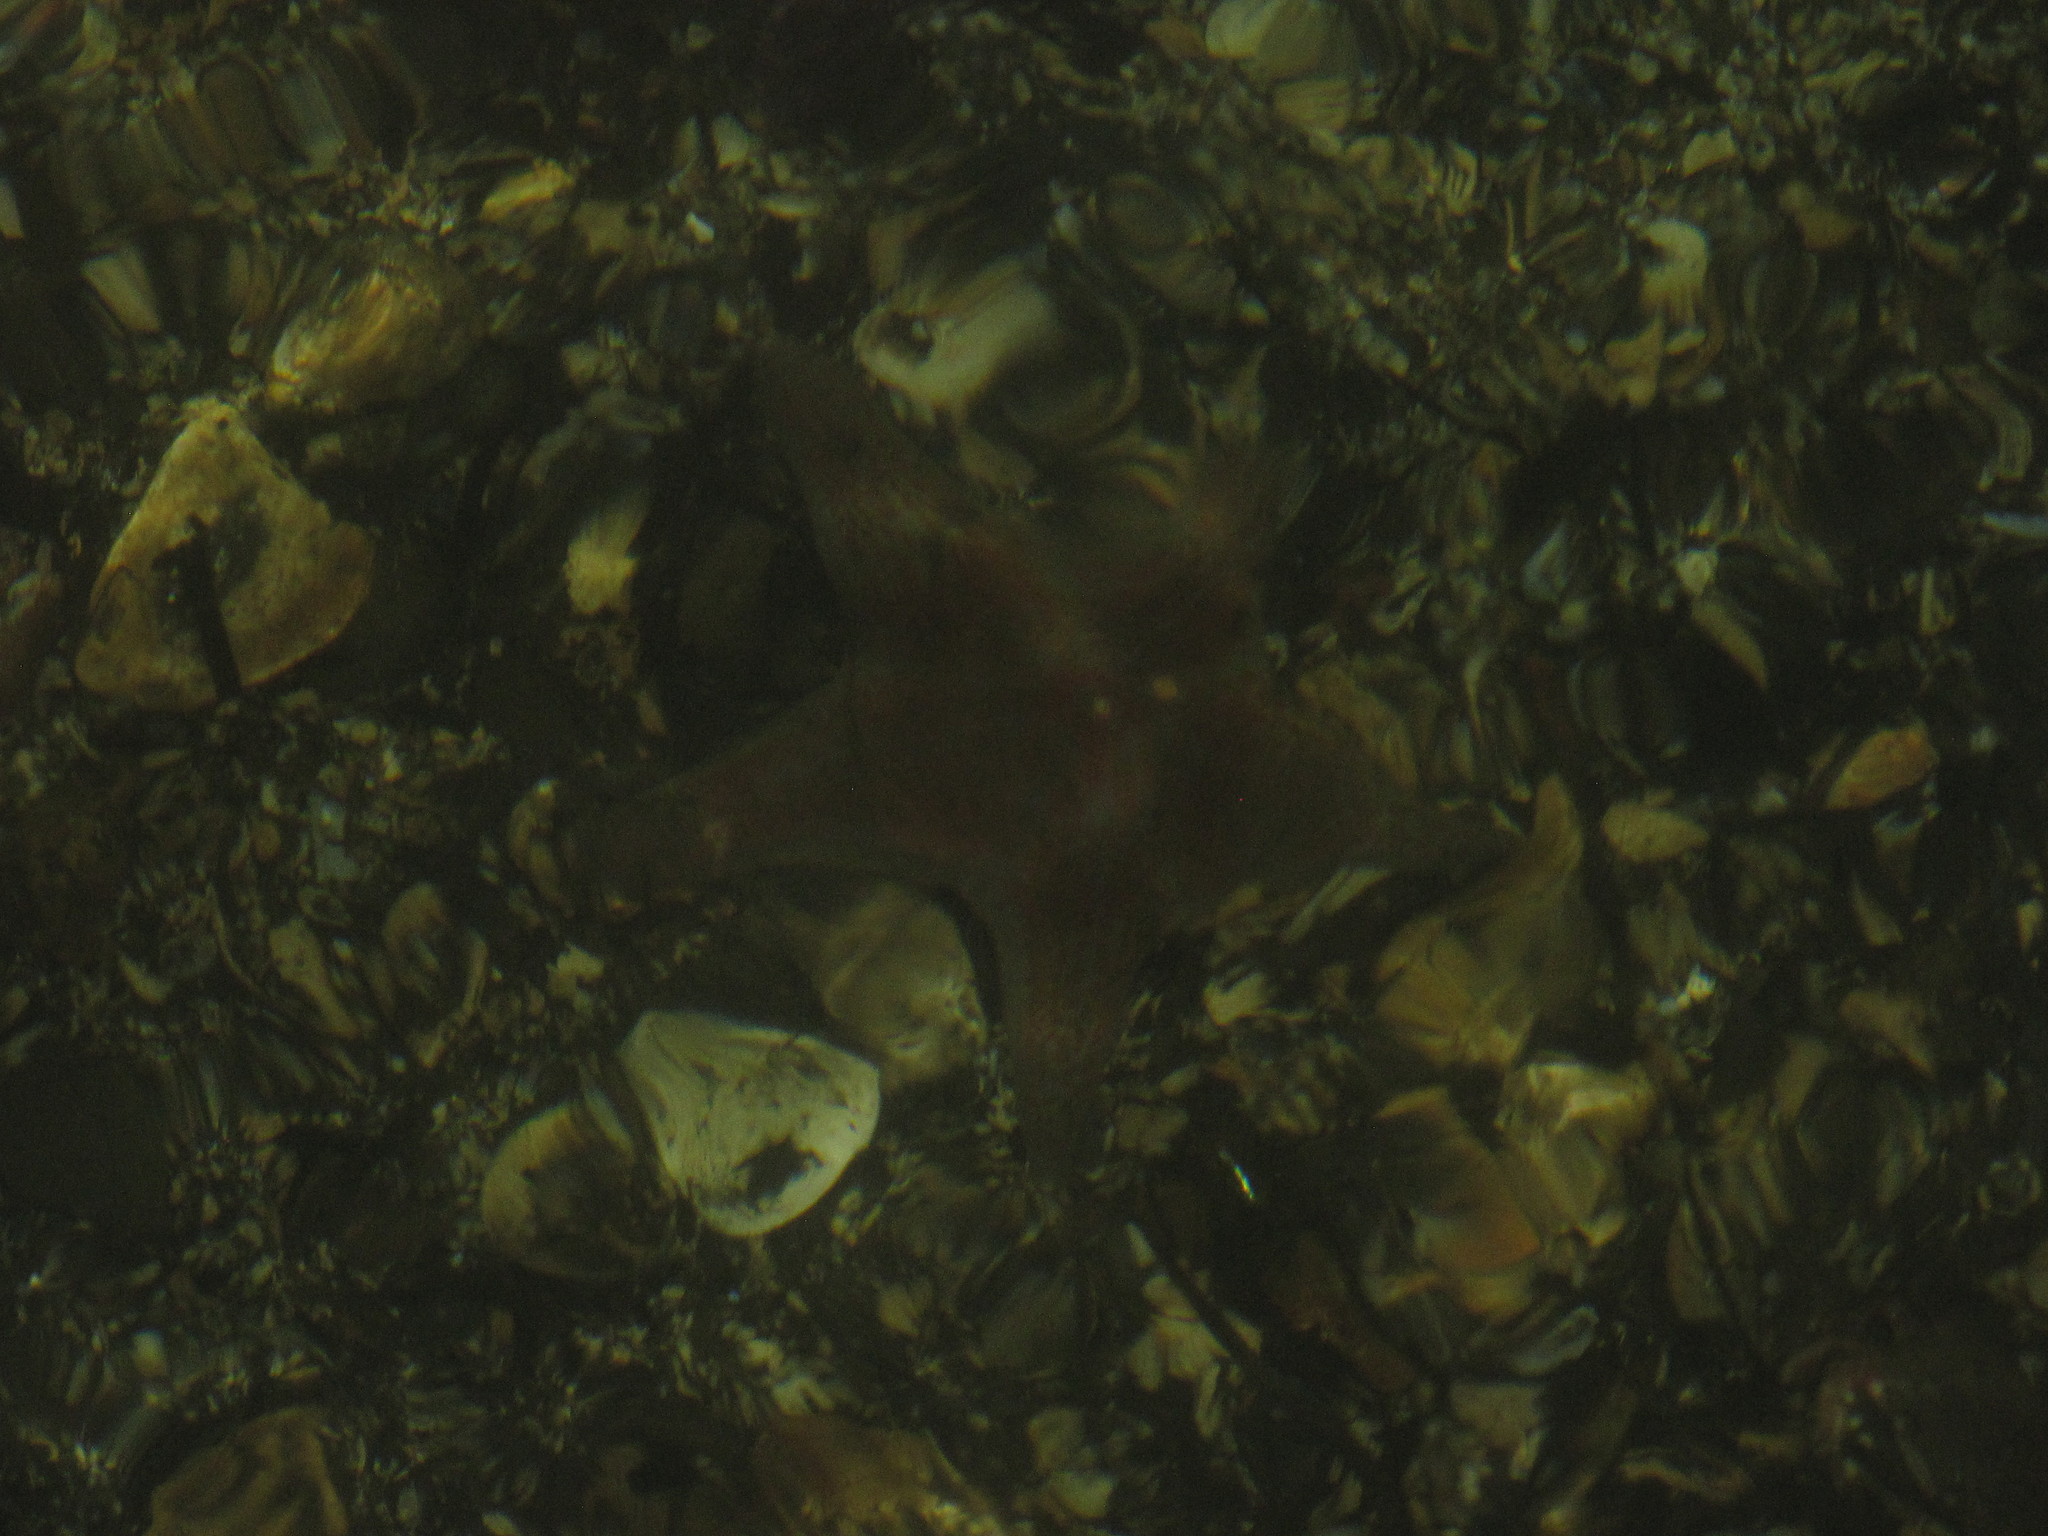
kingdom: Animalia
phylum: Echinodermata
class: Asteroidea
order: Valvatida
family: Asteropseidae
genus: Dermasterias
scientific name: Dermasterias imbricata
